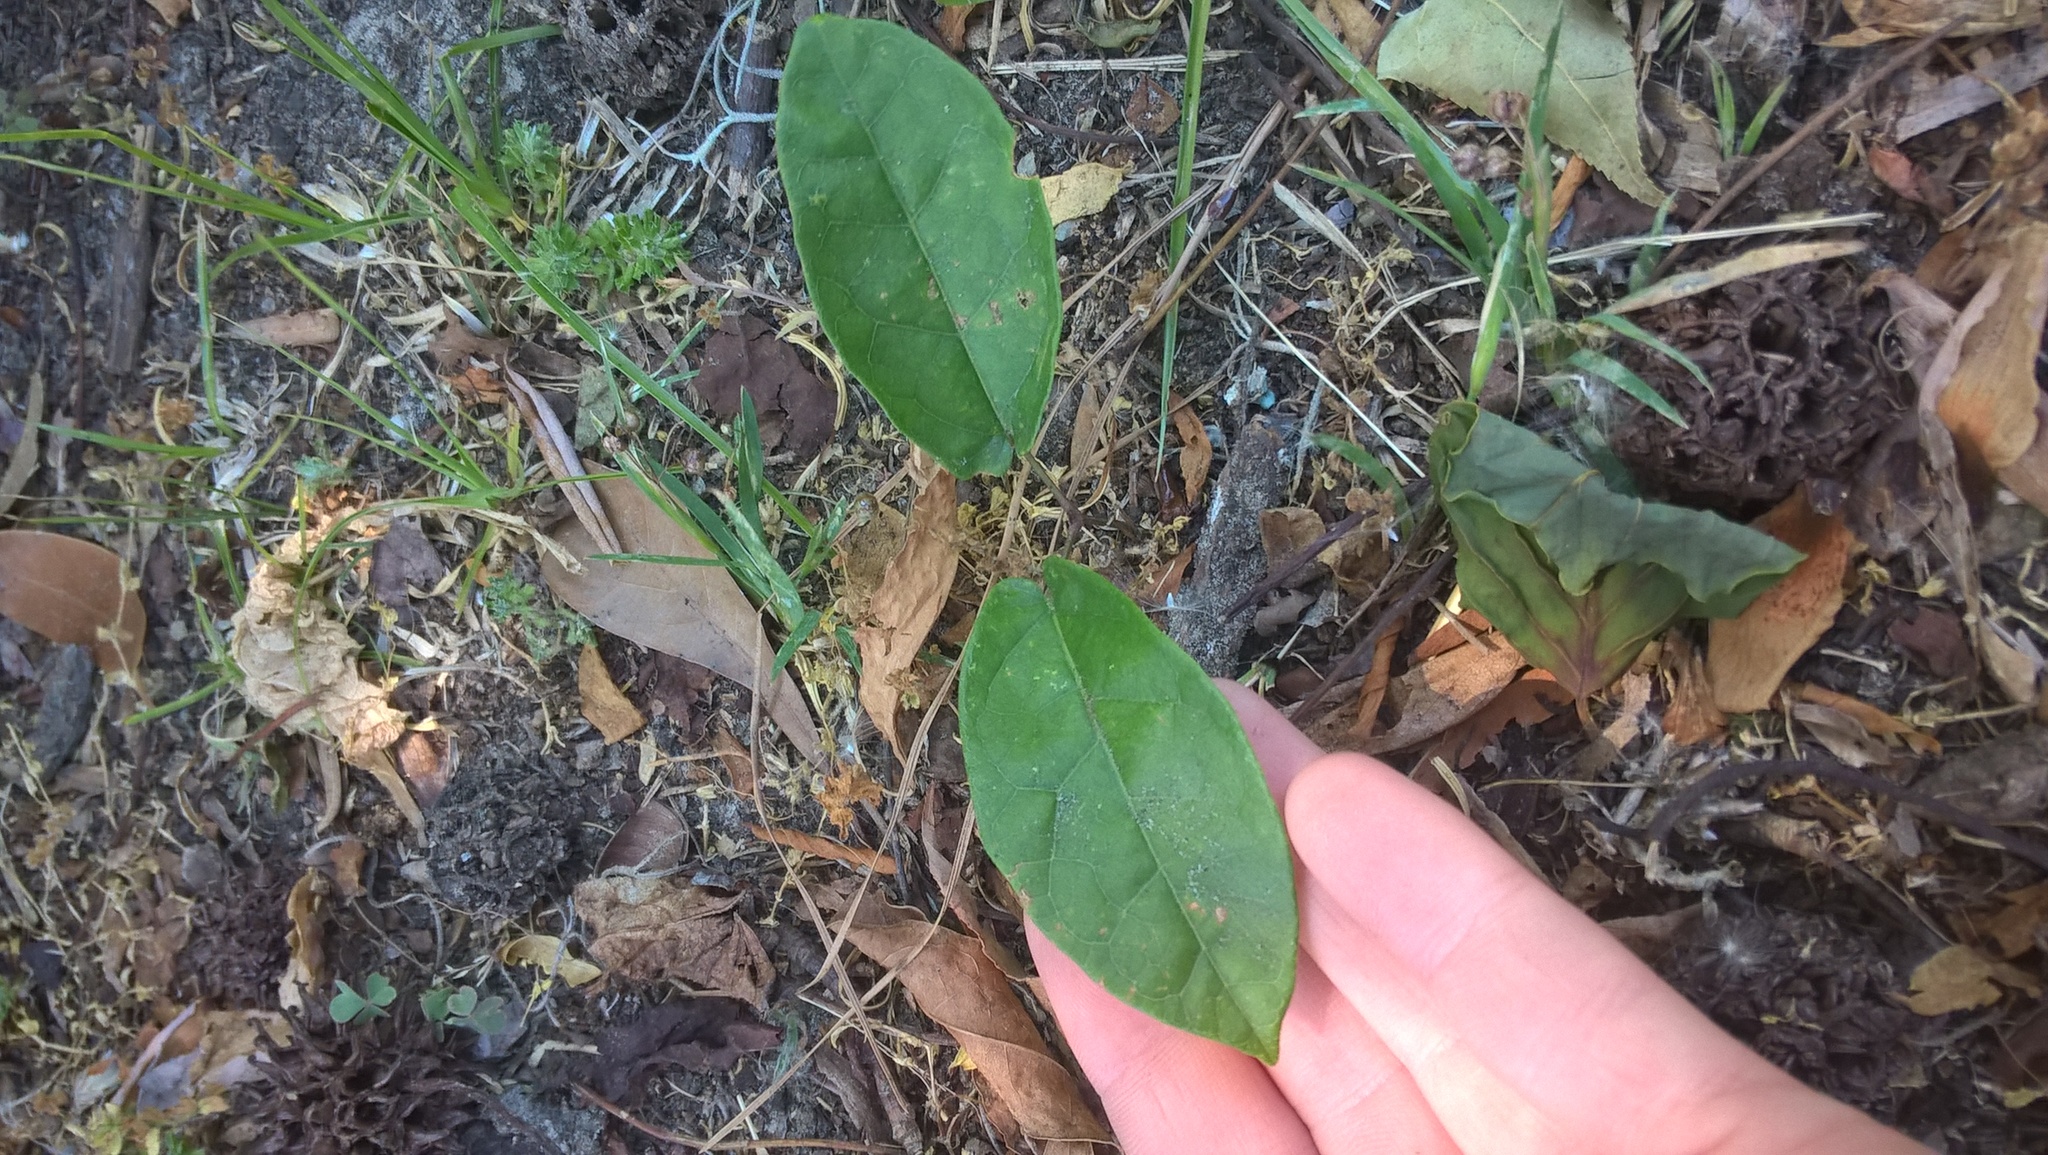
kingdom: Plantae
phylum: Tracheophyta
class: Magnoliopsida
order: Lamiales
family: Bignoniaceae
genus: Bignonia
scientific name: Bignonia capreolata
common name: Crossvine
